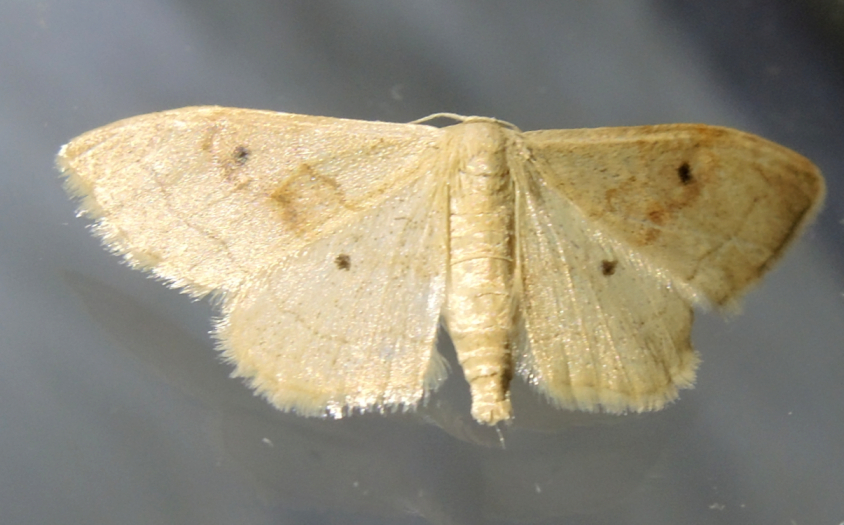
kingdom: Animalia
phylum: Arthropoda
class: Insecta
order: Lepidoptera
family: Geometridae
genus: Idaea
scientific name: Idaea bilinearia
